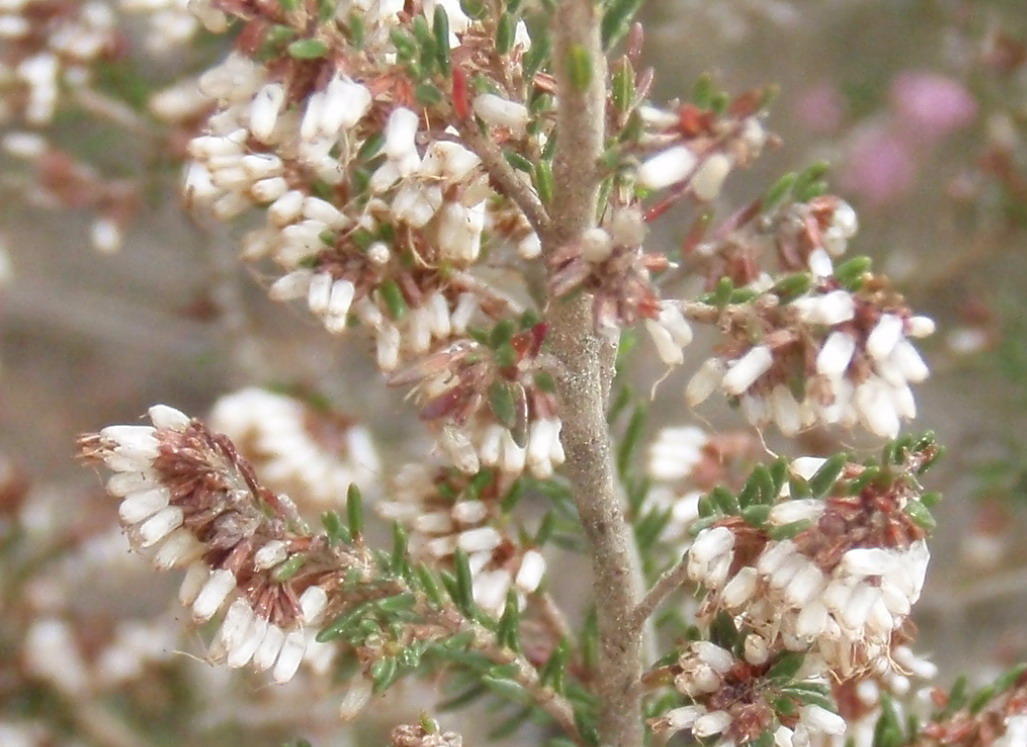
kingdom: Plantae
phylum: Tracheophyta
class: Magnoliopsida
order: Ericales
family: Ericaceae
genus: Erica
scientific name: Erica uberiflora
